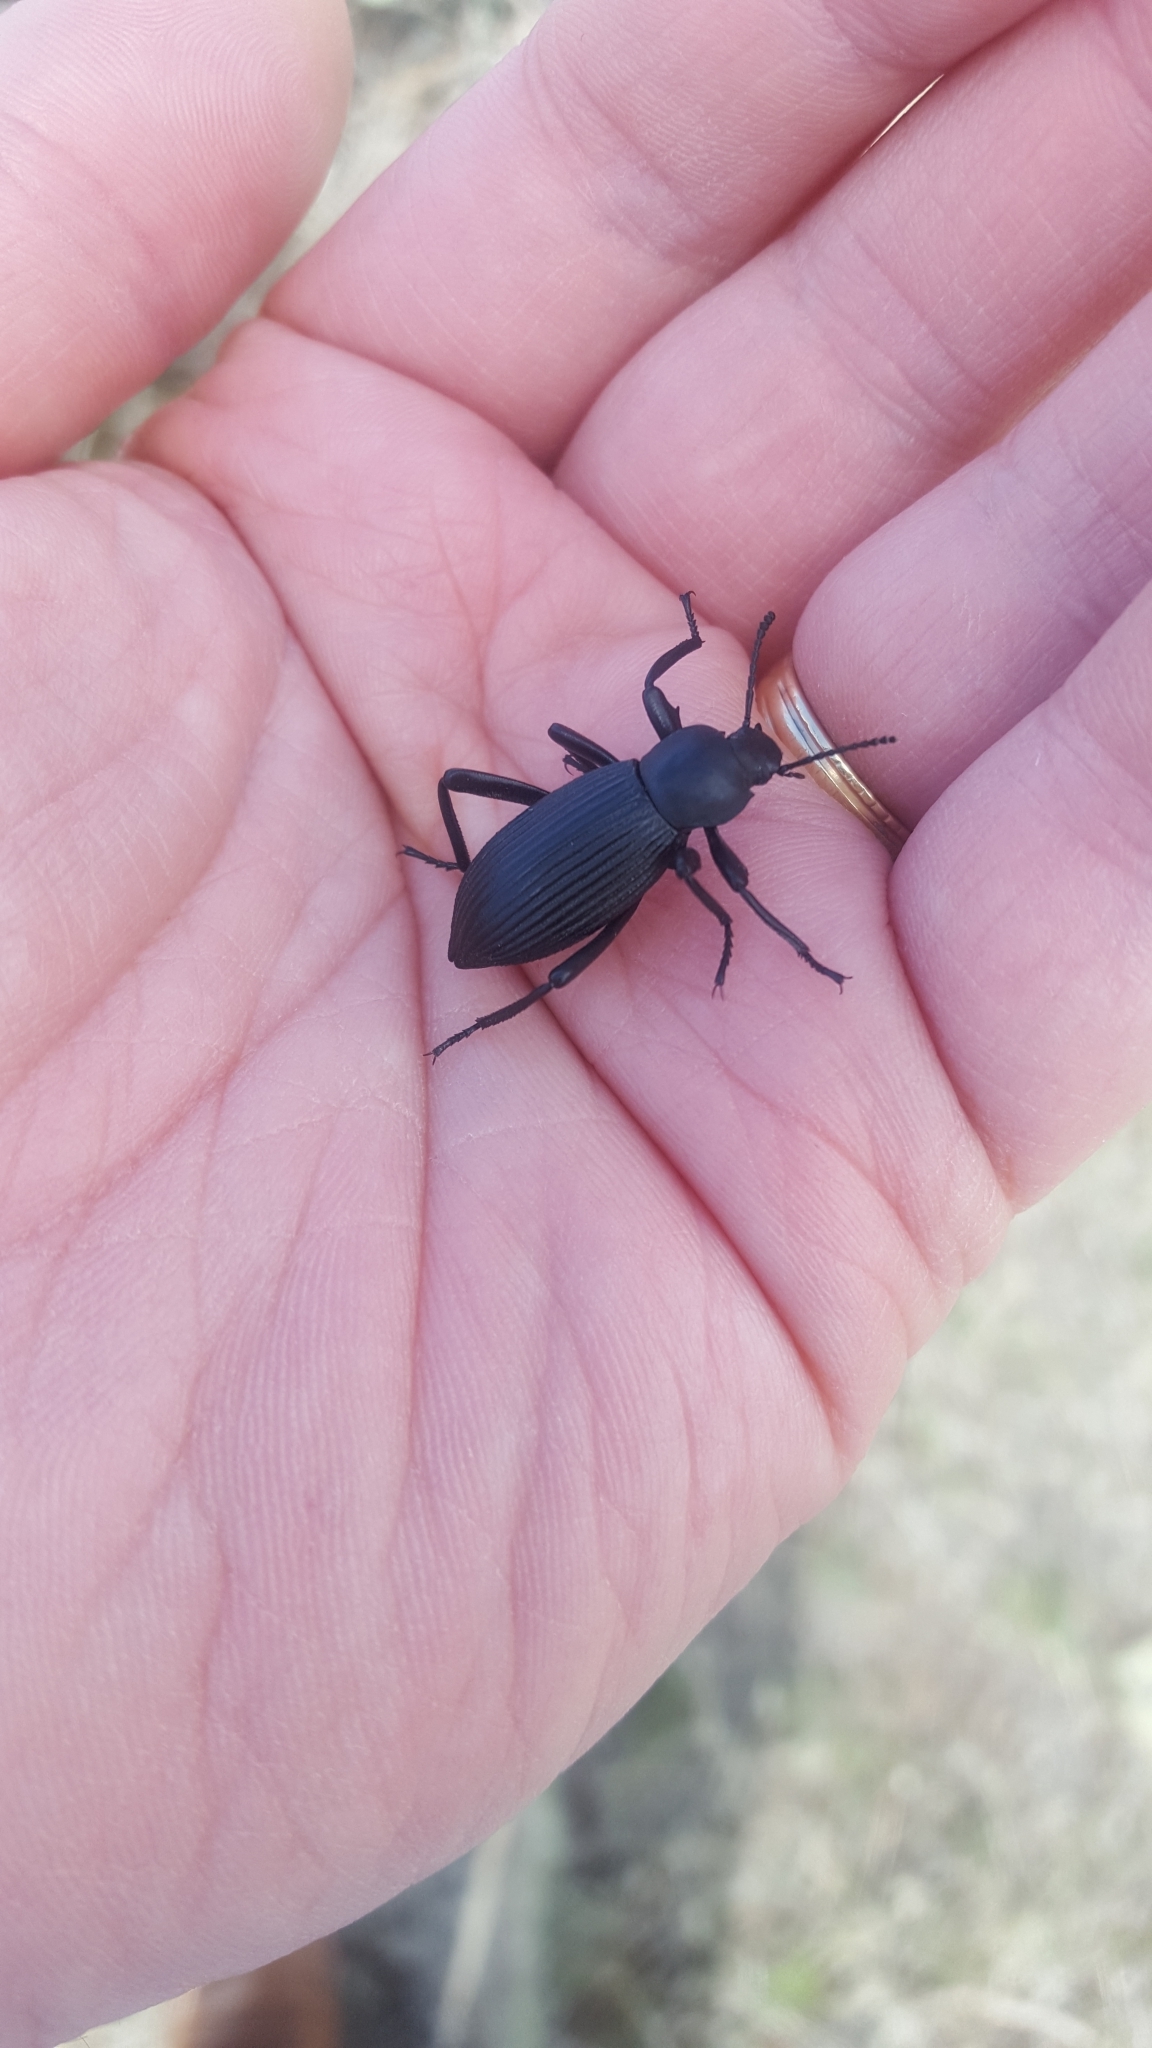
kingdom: Animalia
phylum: Arthropoda
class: Insecta
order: Coleoptera
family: Tenebrionidae
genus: Eleodes
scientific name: Eleodes hispilabris
